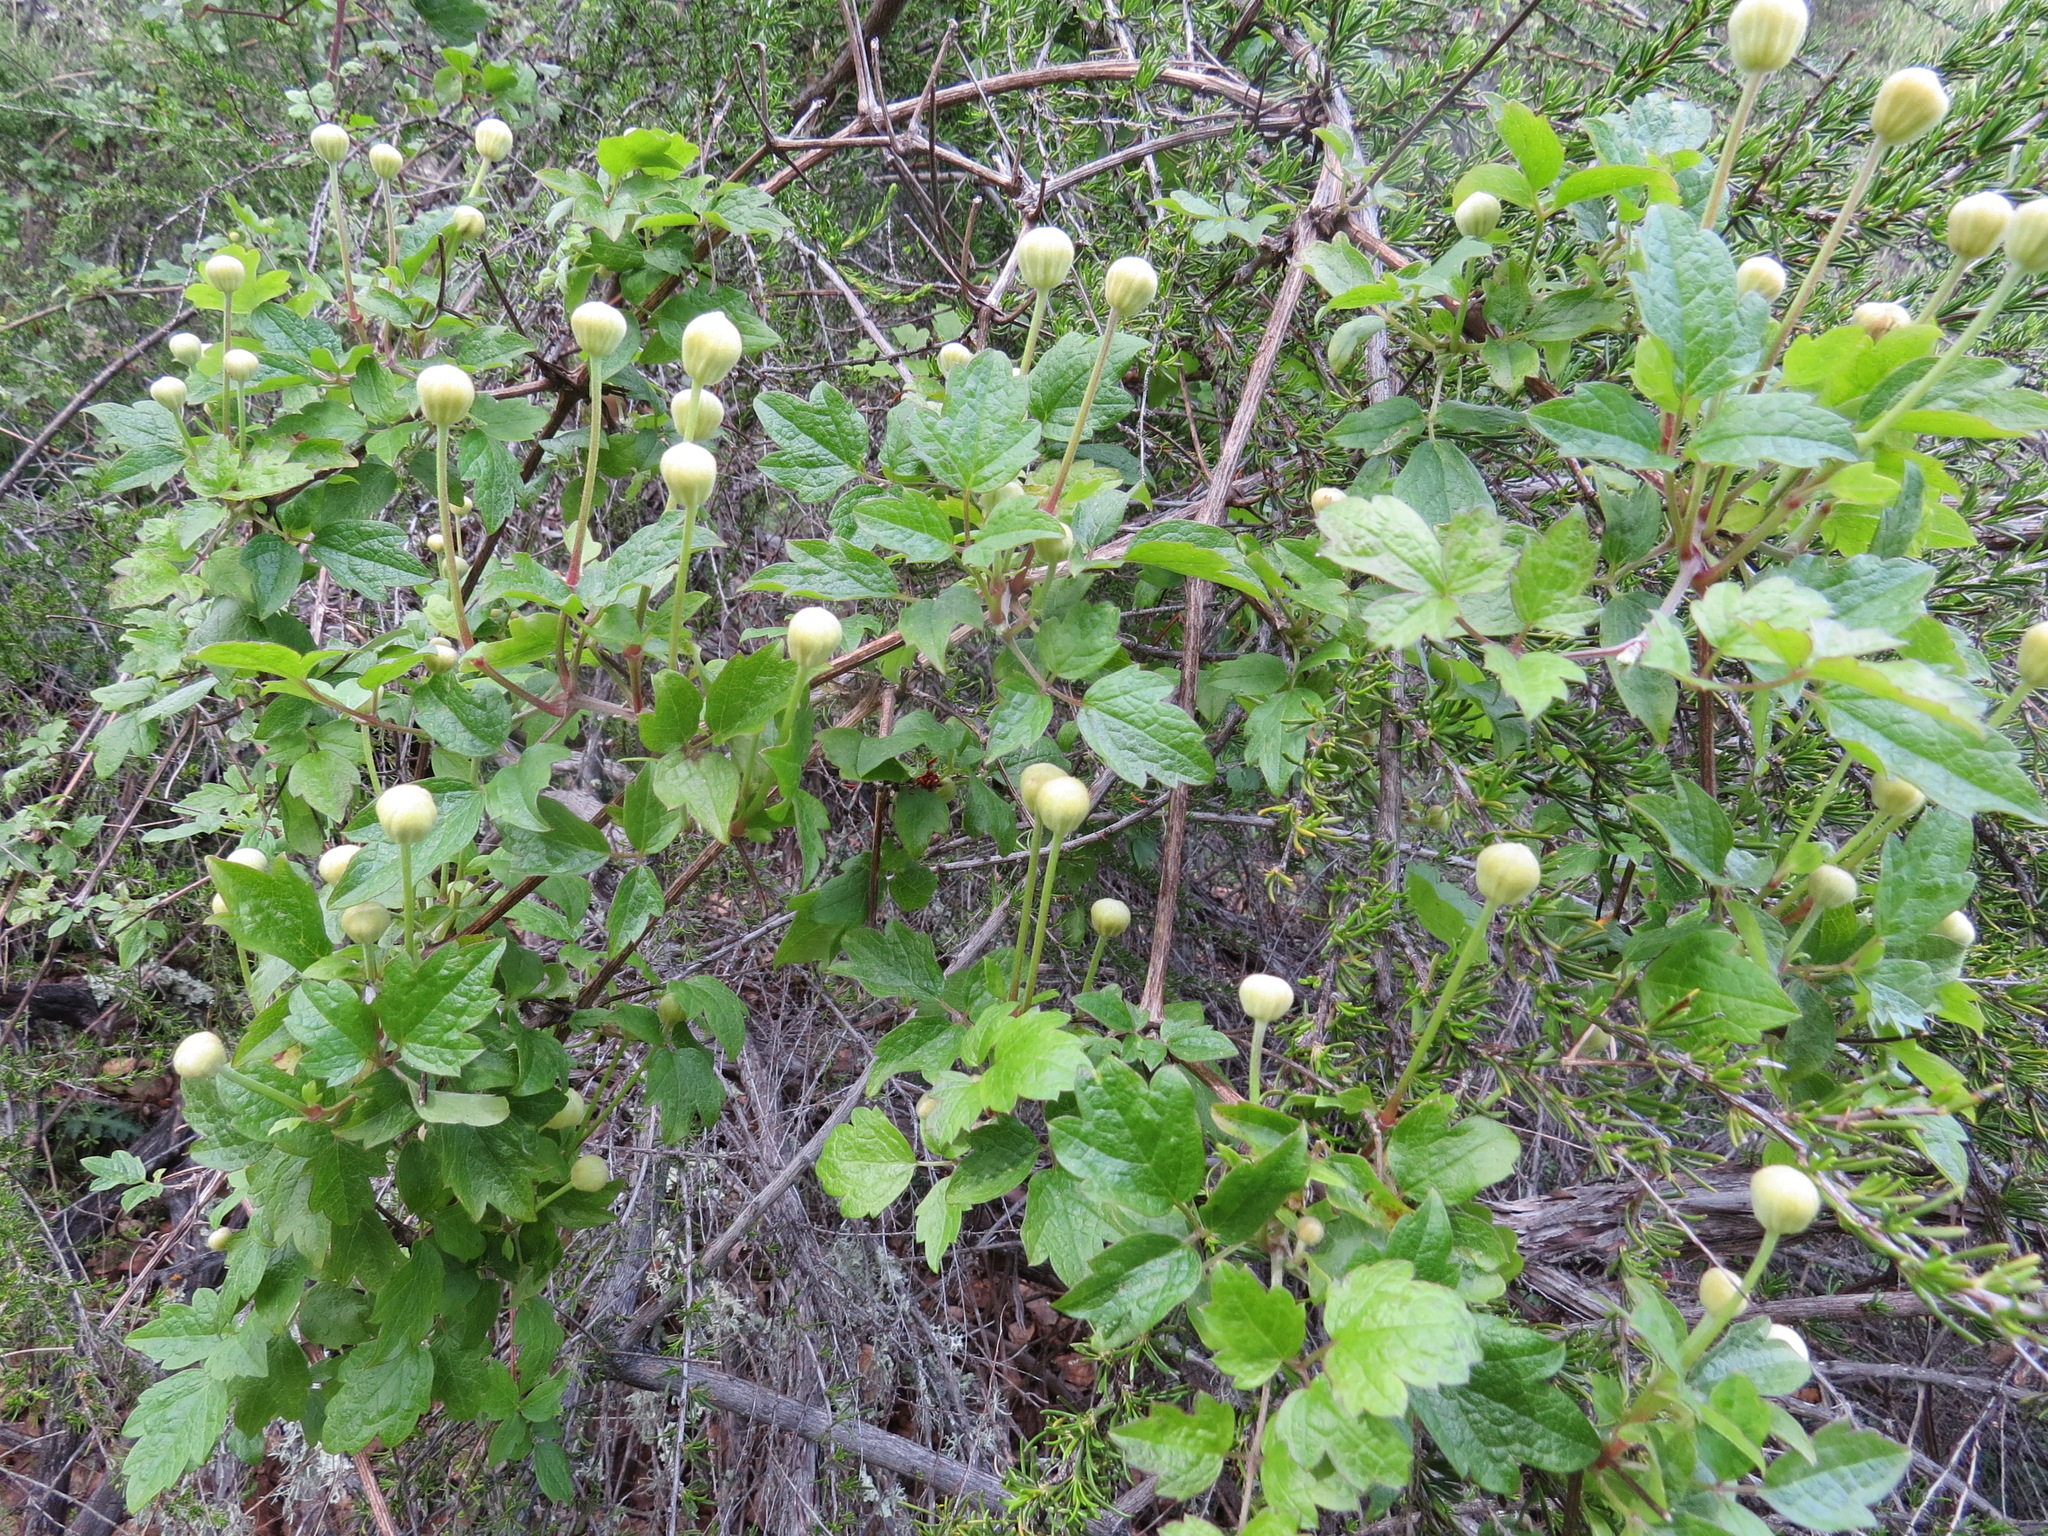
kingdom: Plantae
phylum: Tracheophyta
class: Magnoliopsida
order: Ranunculales
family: Ranunculaceae
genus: Clematis
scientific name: Clematis lasiantha
